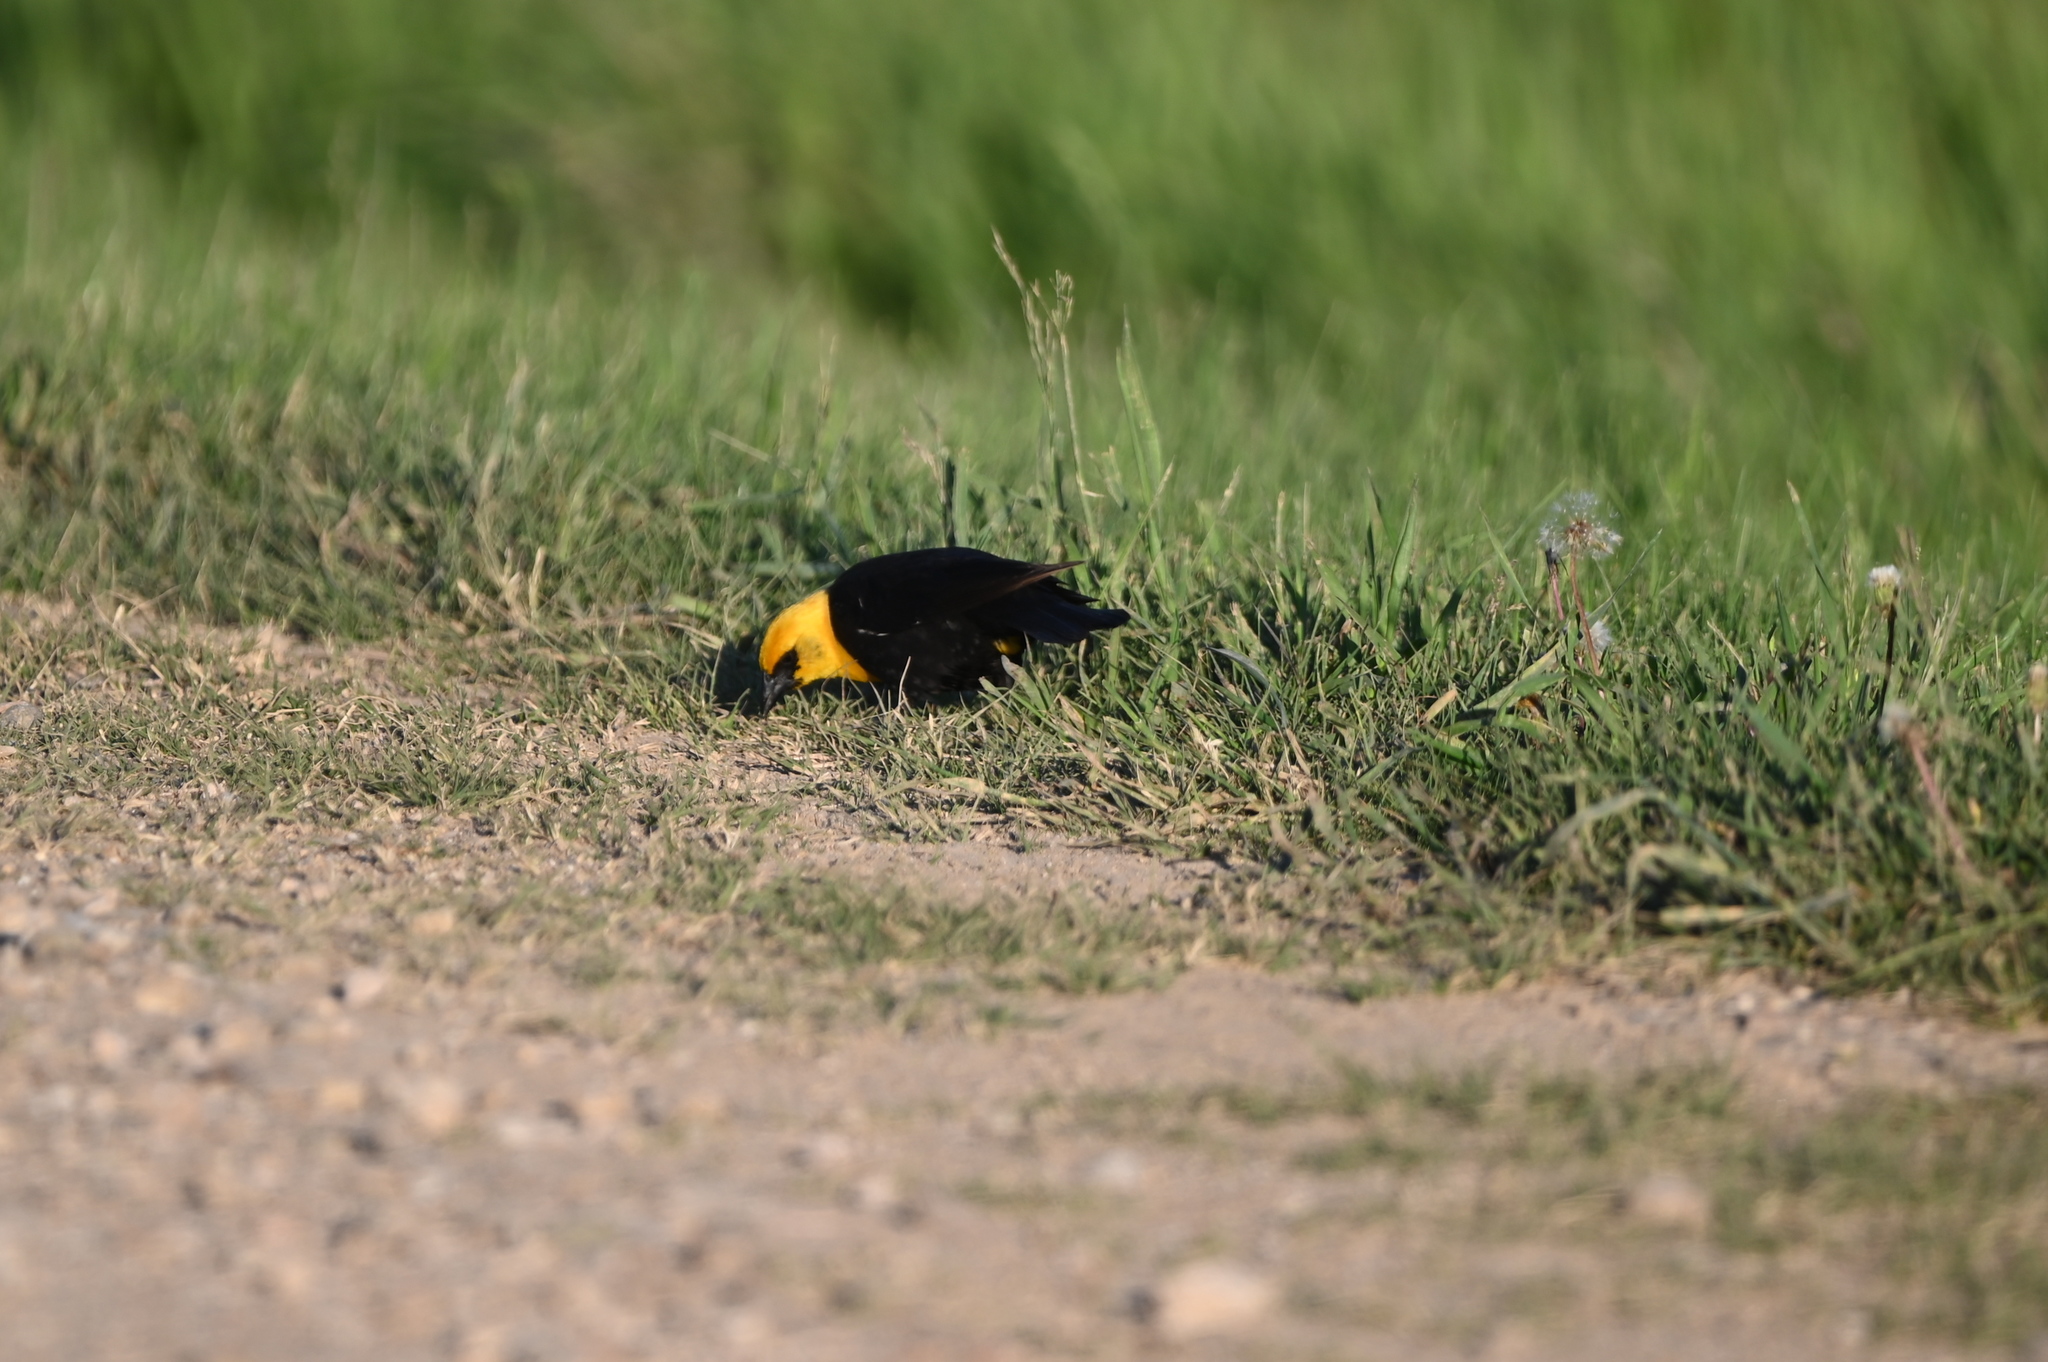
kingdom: Animalia
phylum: Chordata
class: Aves
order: Passeriformes
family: Icteridae
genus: Xanthocephalus
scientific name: Xanthocephalus xanthocephalus
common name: Yellow-headed blackbird
